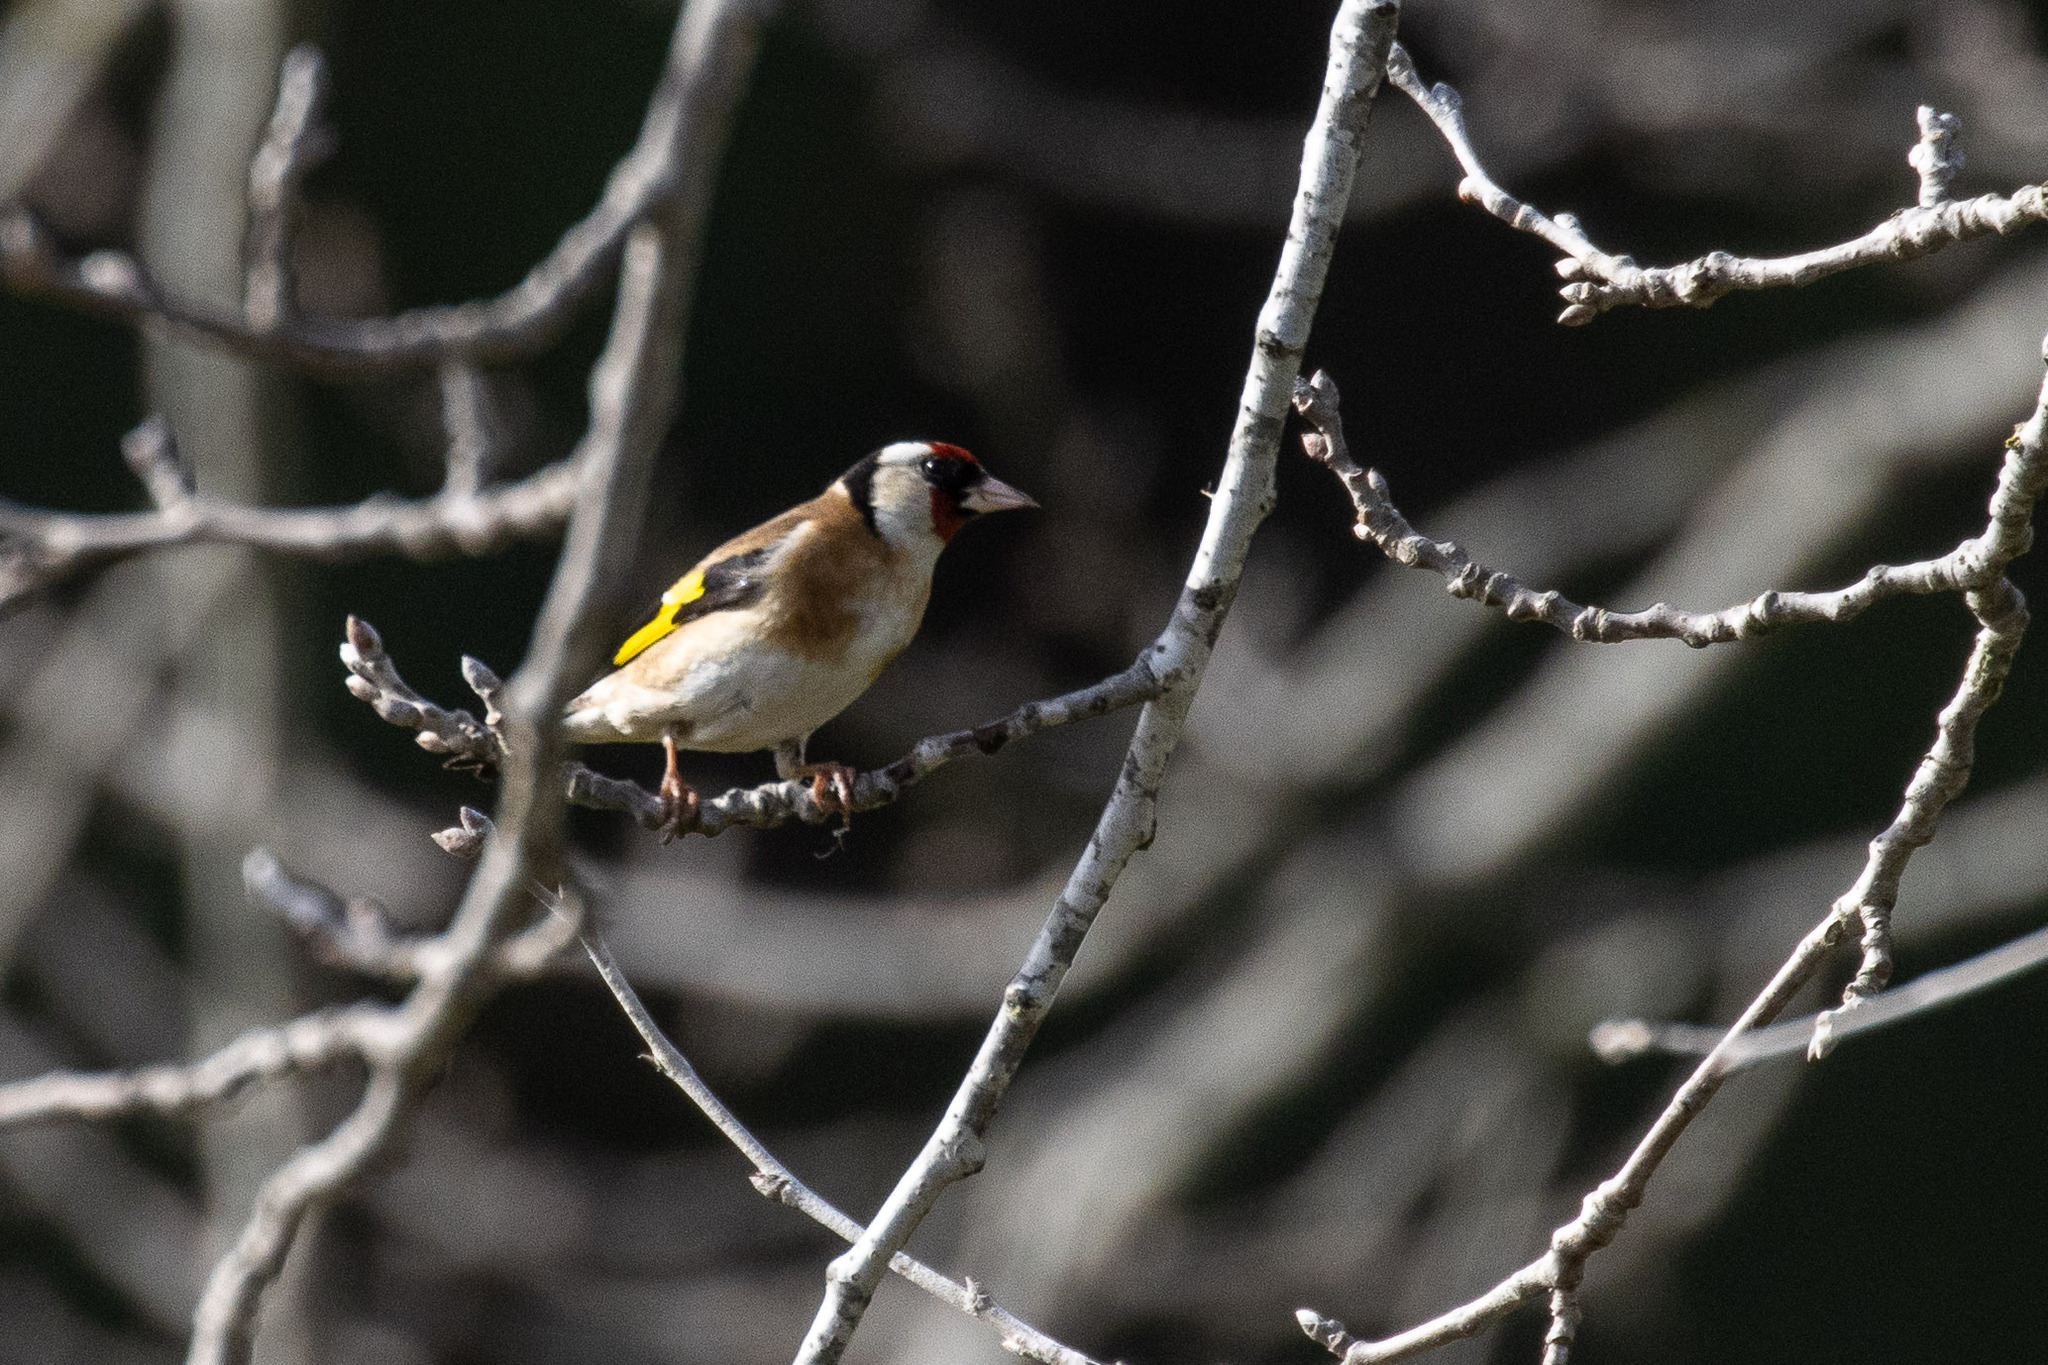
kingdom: Animalia
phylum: Chordata
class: Aves
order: Passeriformes
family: Fringillidae
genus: Carduelis
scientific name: Carduelis carduelis
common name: European goldfinch
